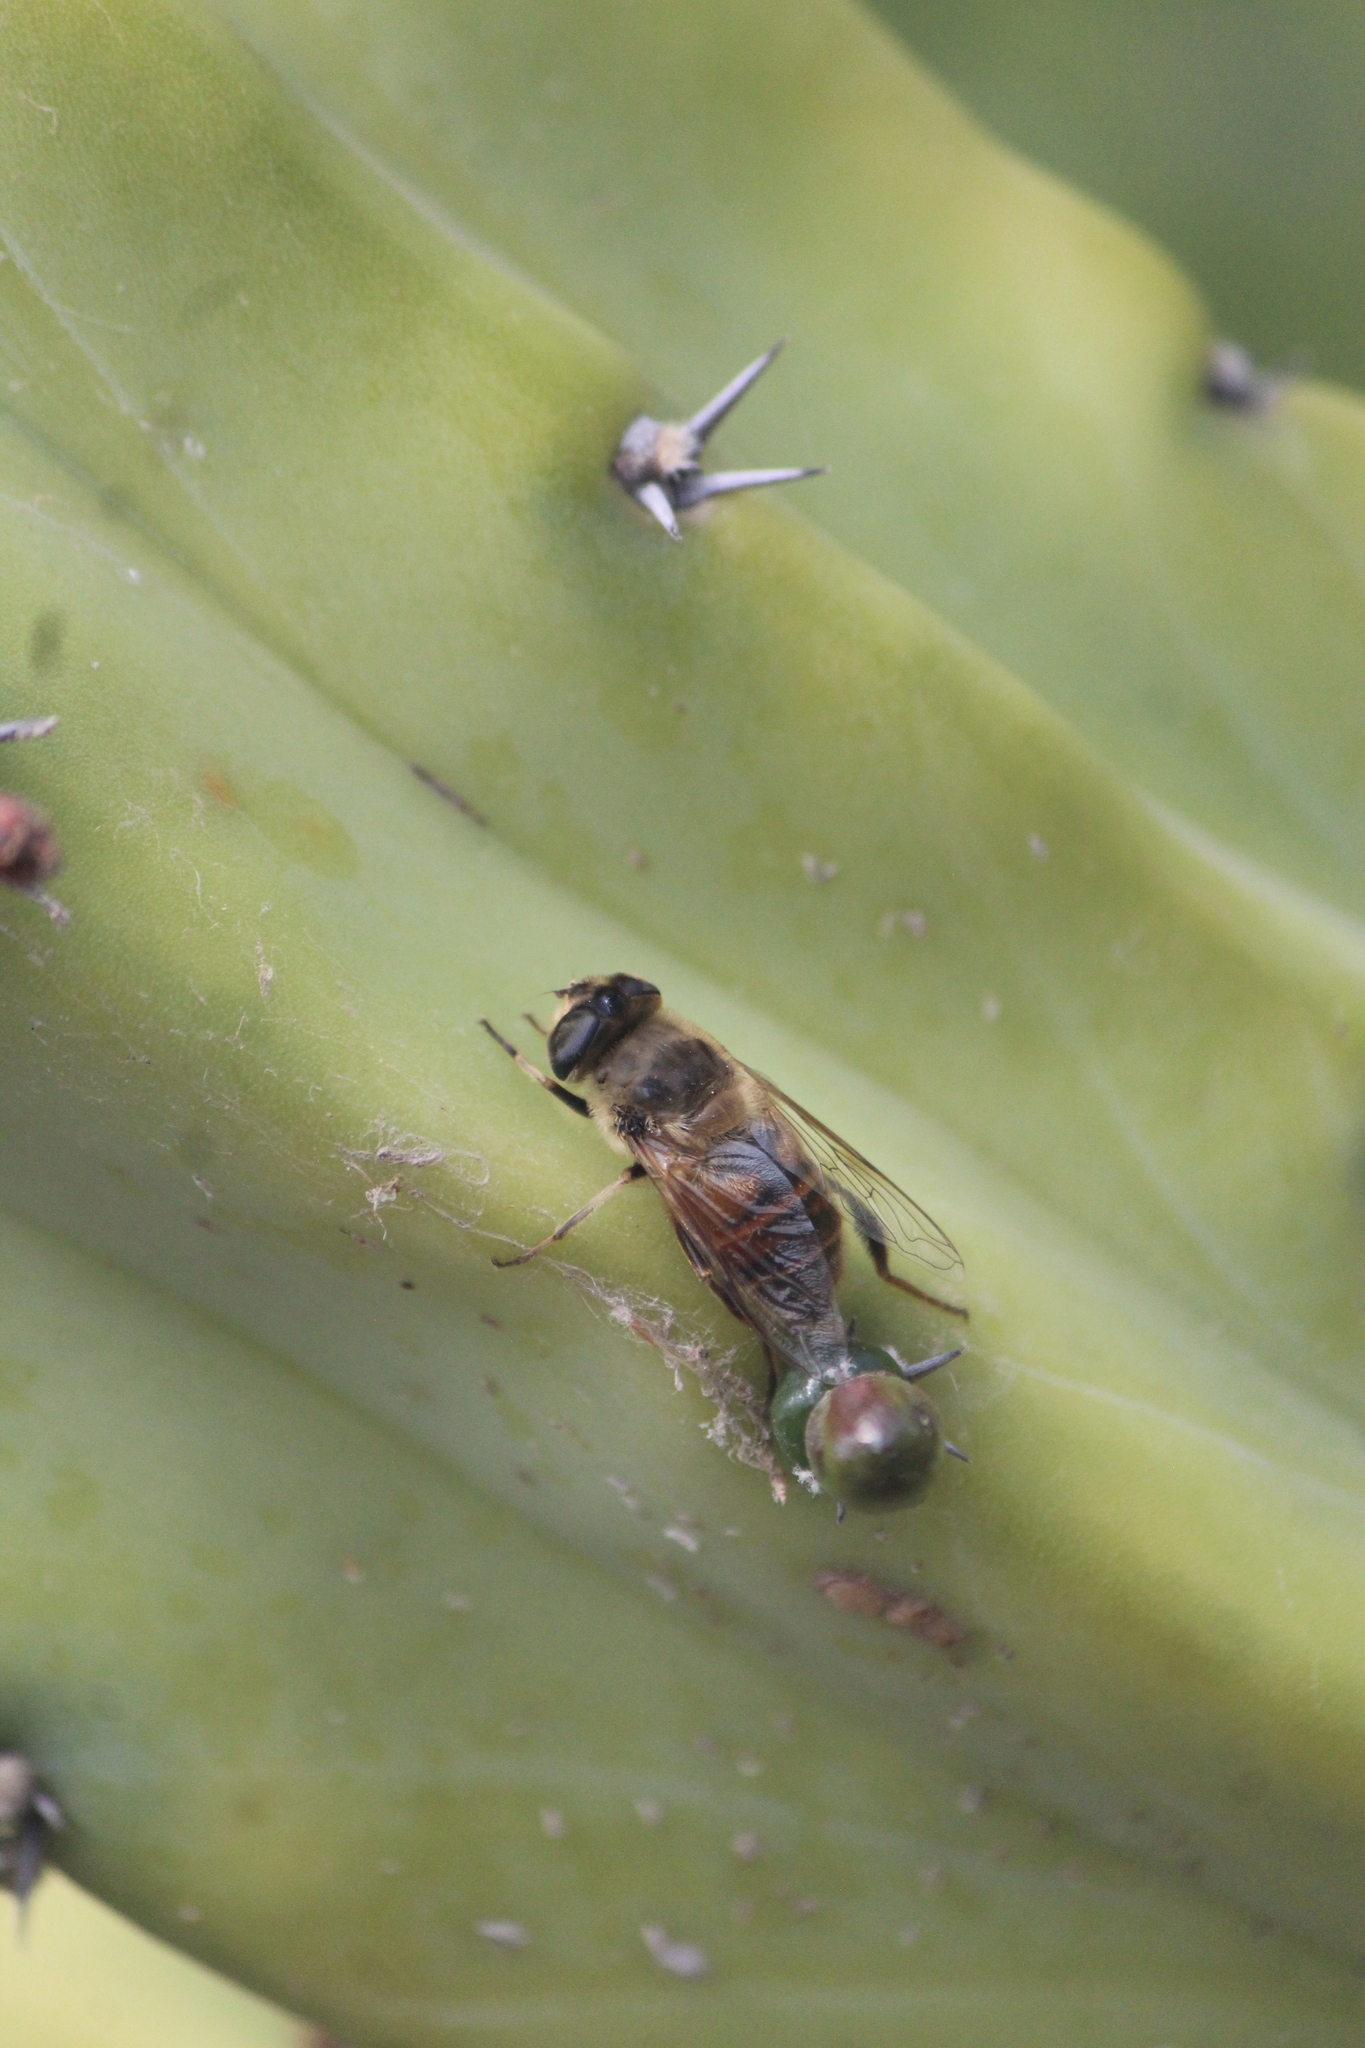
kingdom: Animalia
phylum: Arthropoda
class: Insecta
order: Diptera
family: Syrphidae
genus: Eristalis
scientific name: Eristalis tenax
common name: Drone fly
